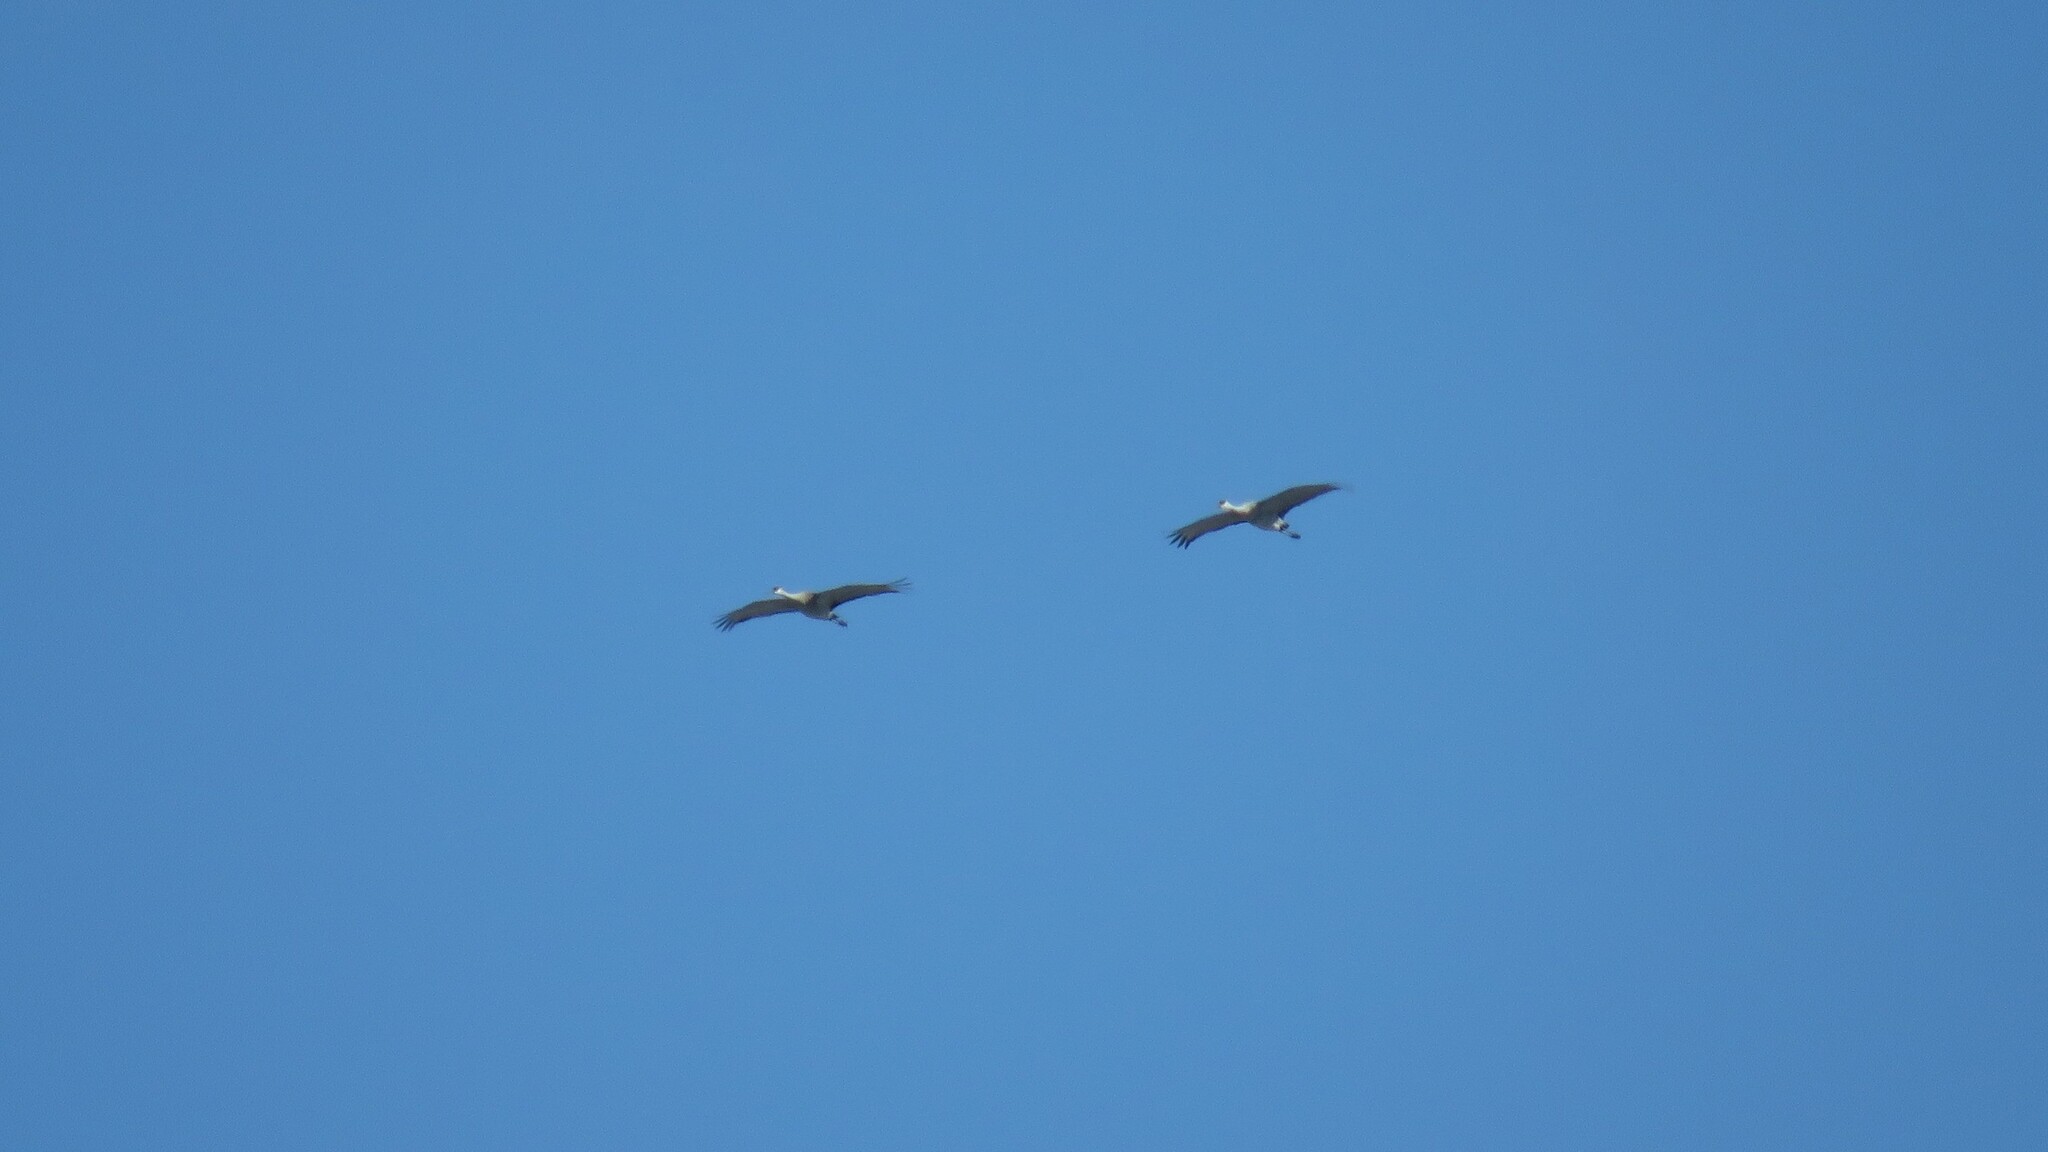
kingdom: Animalia
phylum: Chordata
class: Aves
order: Gruiformes
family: Gruidae
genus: Grus
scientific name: Grus canadensis
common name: Sandhill crane
